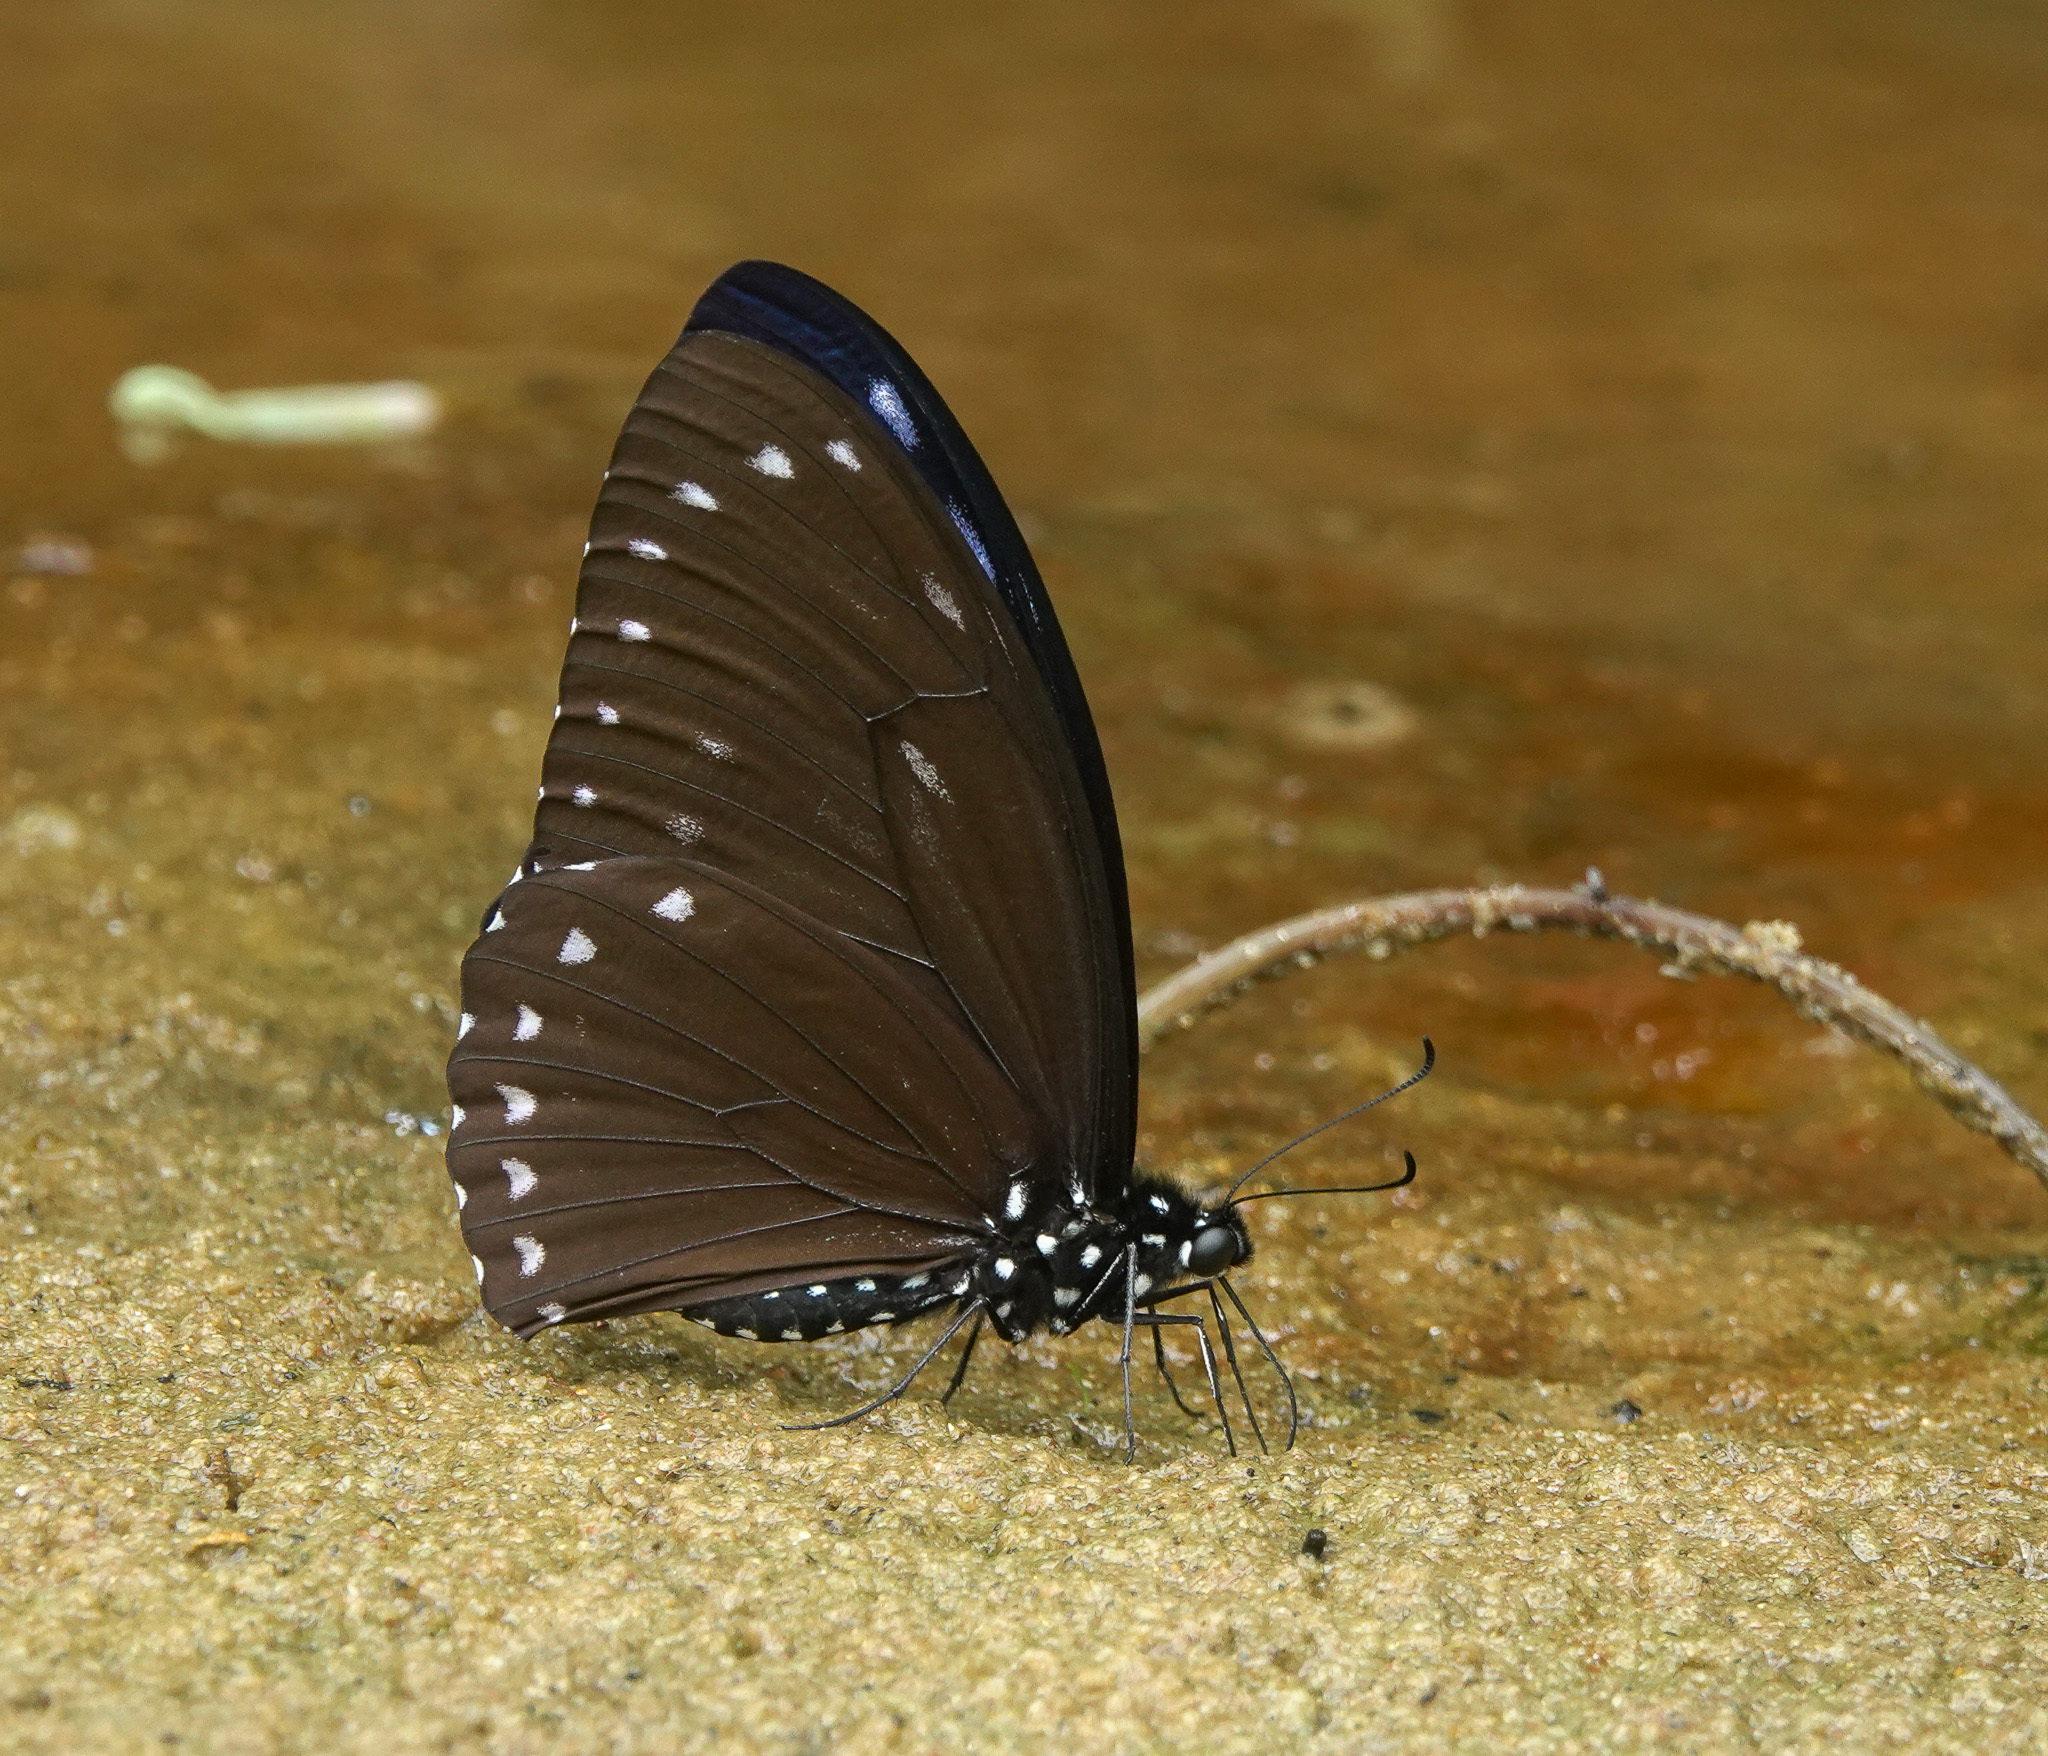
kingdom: Animalia
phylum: Arthropoda
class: Insecta
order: Lepidoptera
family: Papilionidae
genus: Papilio
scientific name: Papilio paradoxa
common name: Great blue mime swallowtail
